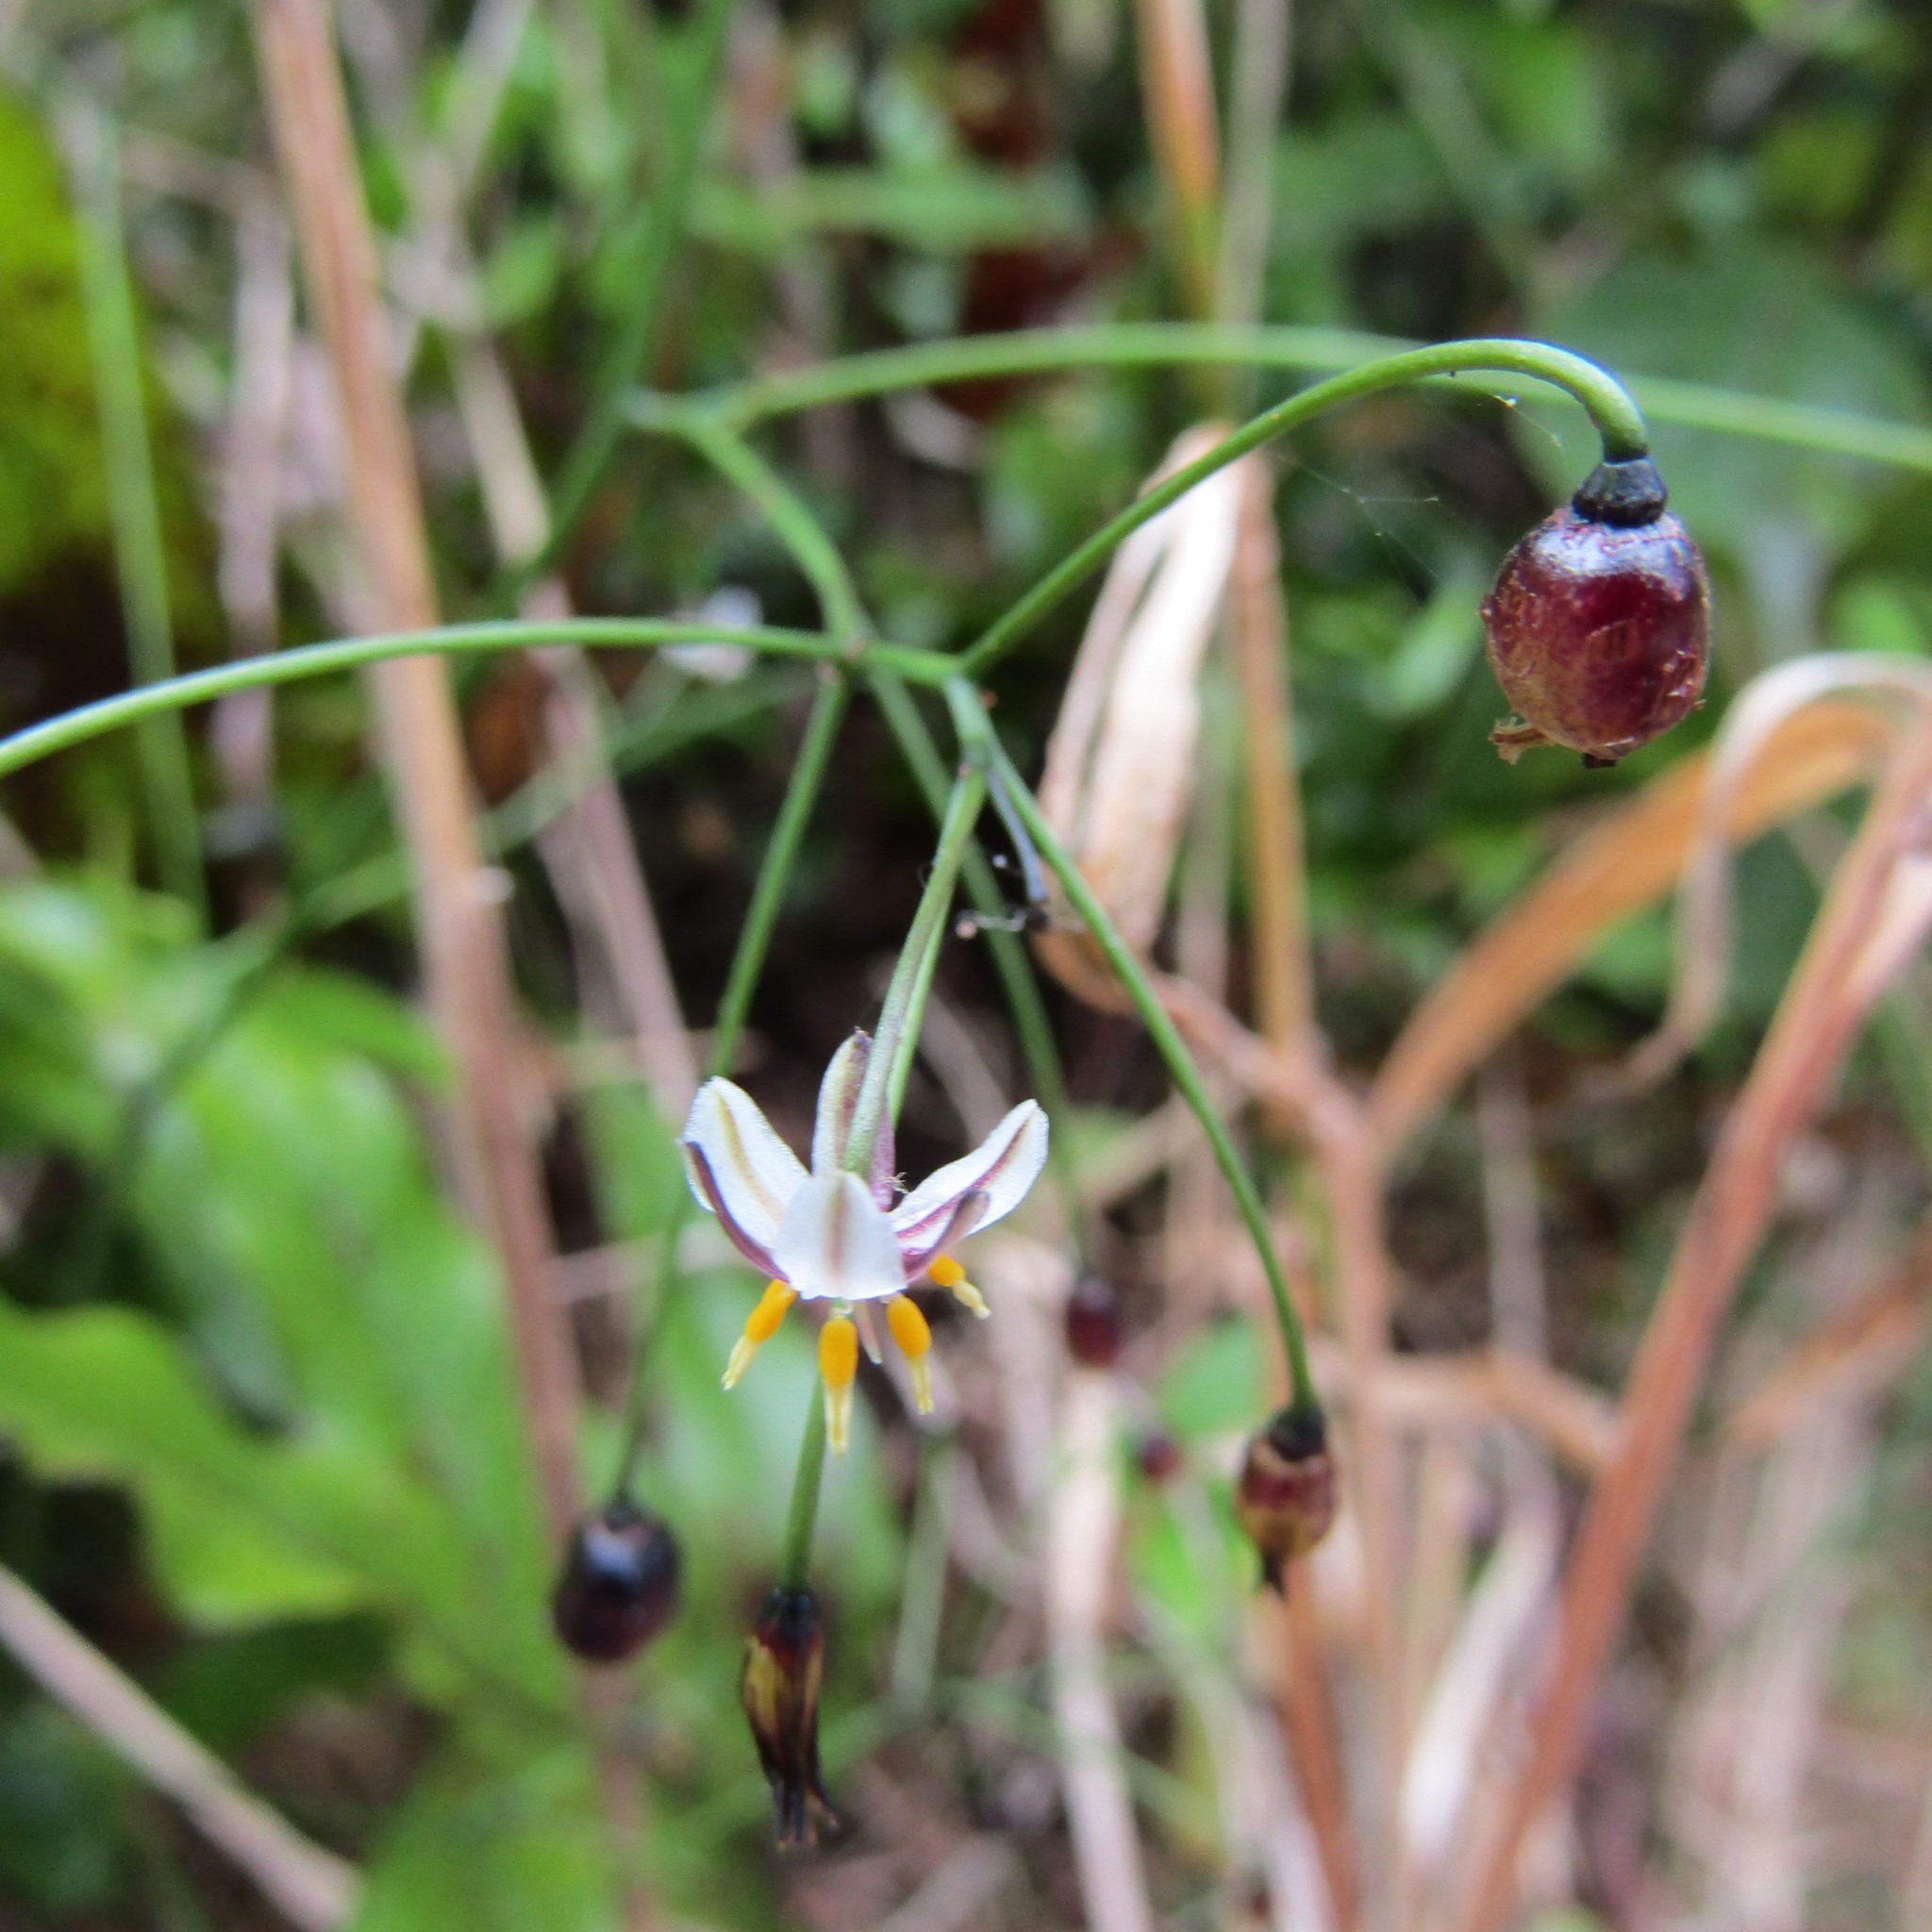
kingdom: Plantae
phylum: Tracheophyta
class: Liliopsida
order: Asparagales
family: Asphodelaceae
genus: Dianella
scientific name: Dianella nigra
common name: New zealand-blueberry
